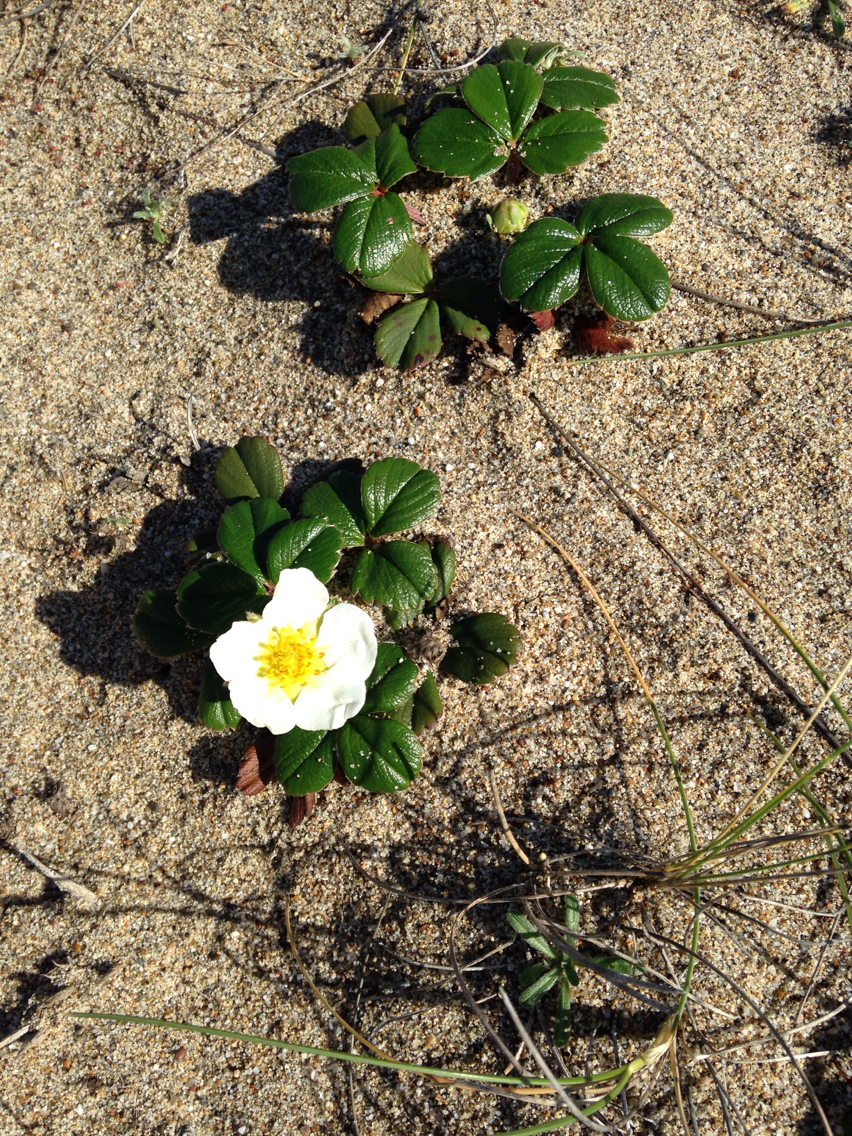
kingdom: Plantae
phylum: Tracheophyta
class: Magnoliopsida
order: Rosales
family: Rosaceae
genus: Fragaria
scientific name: Fragaria chiloensis
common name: Beach strawberry
